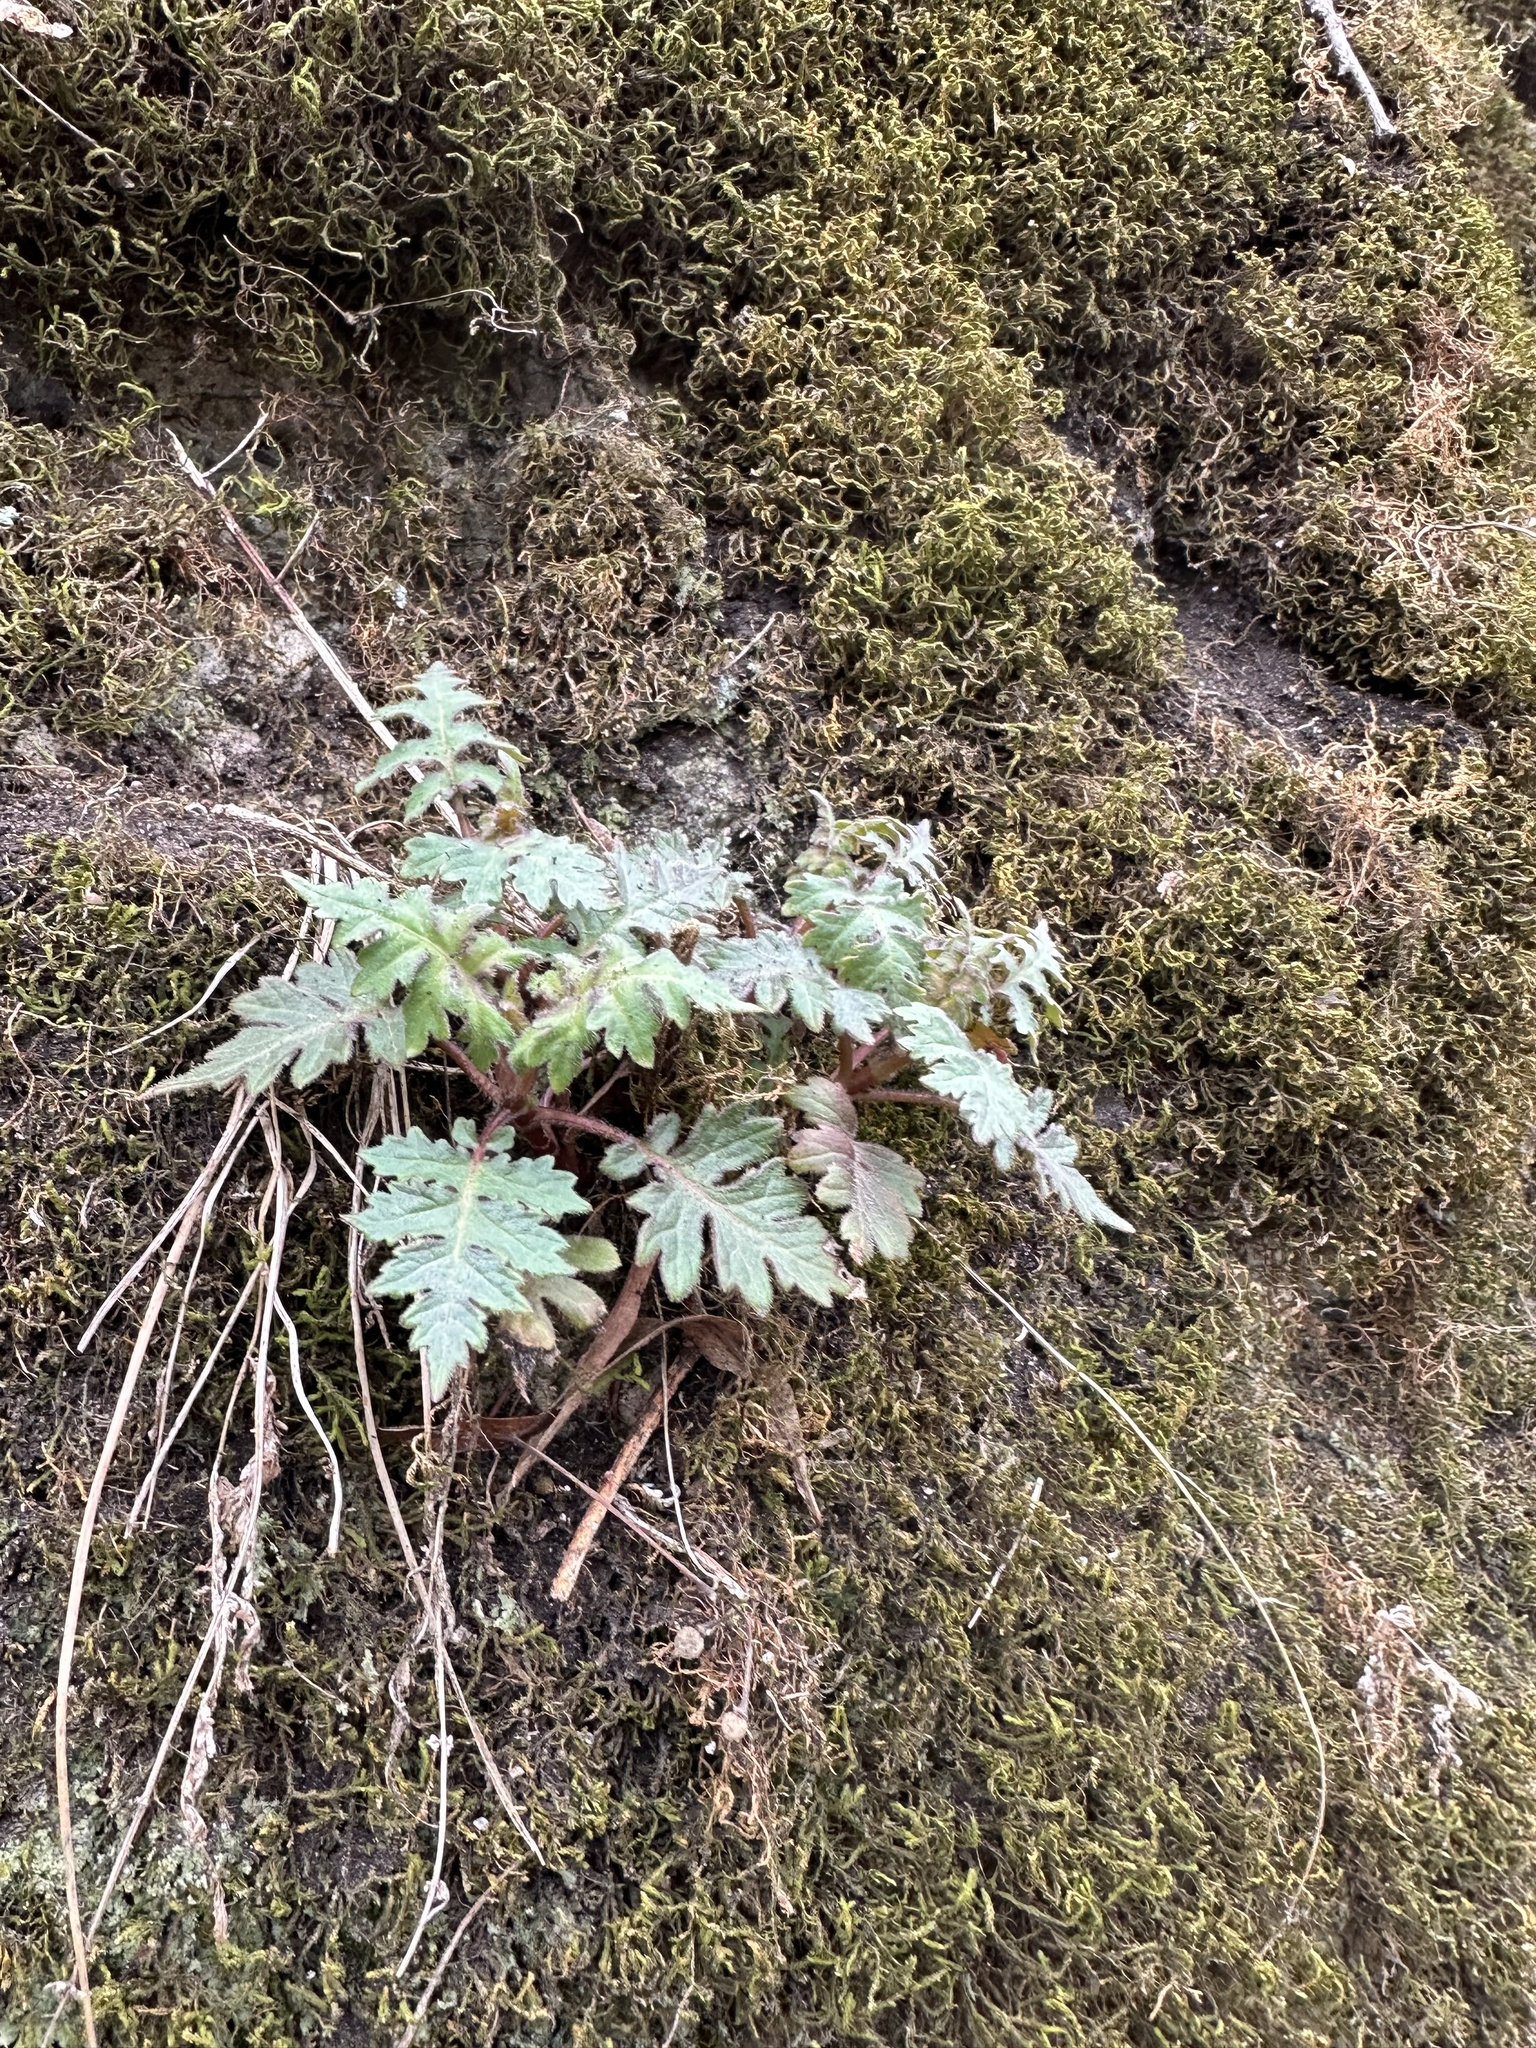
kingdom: Plantae
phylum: Tracheophyta
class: Magnoliopsida
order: Asterales
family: Asteraceae
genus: Polymnia
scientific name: Polymnia canadensis
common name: Pale-flowered leafcup
